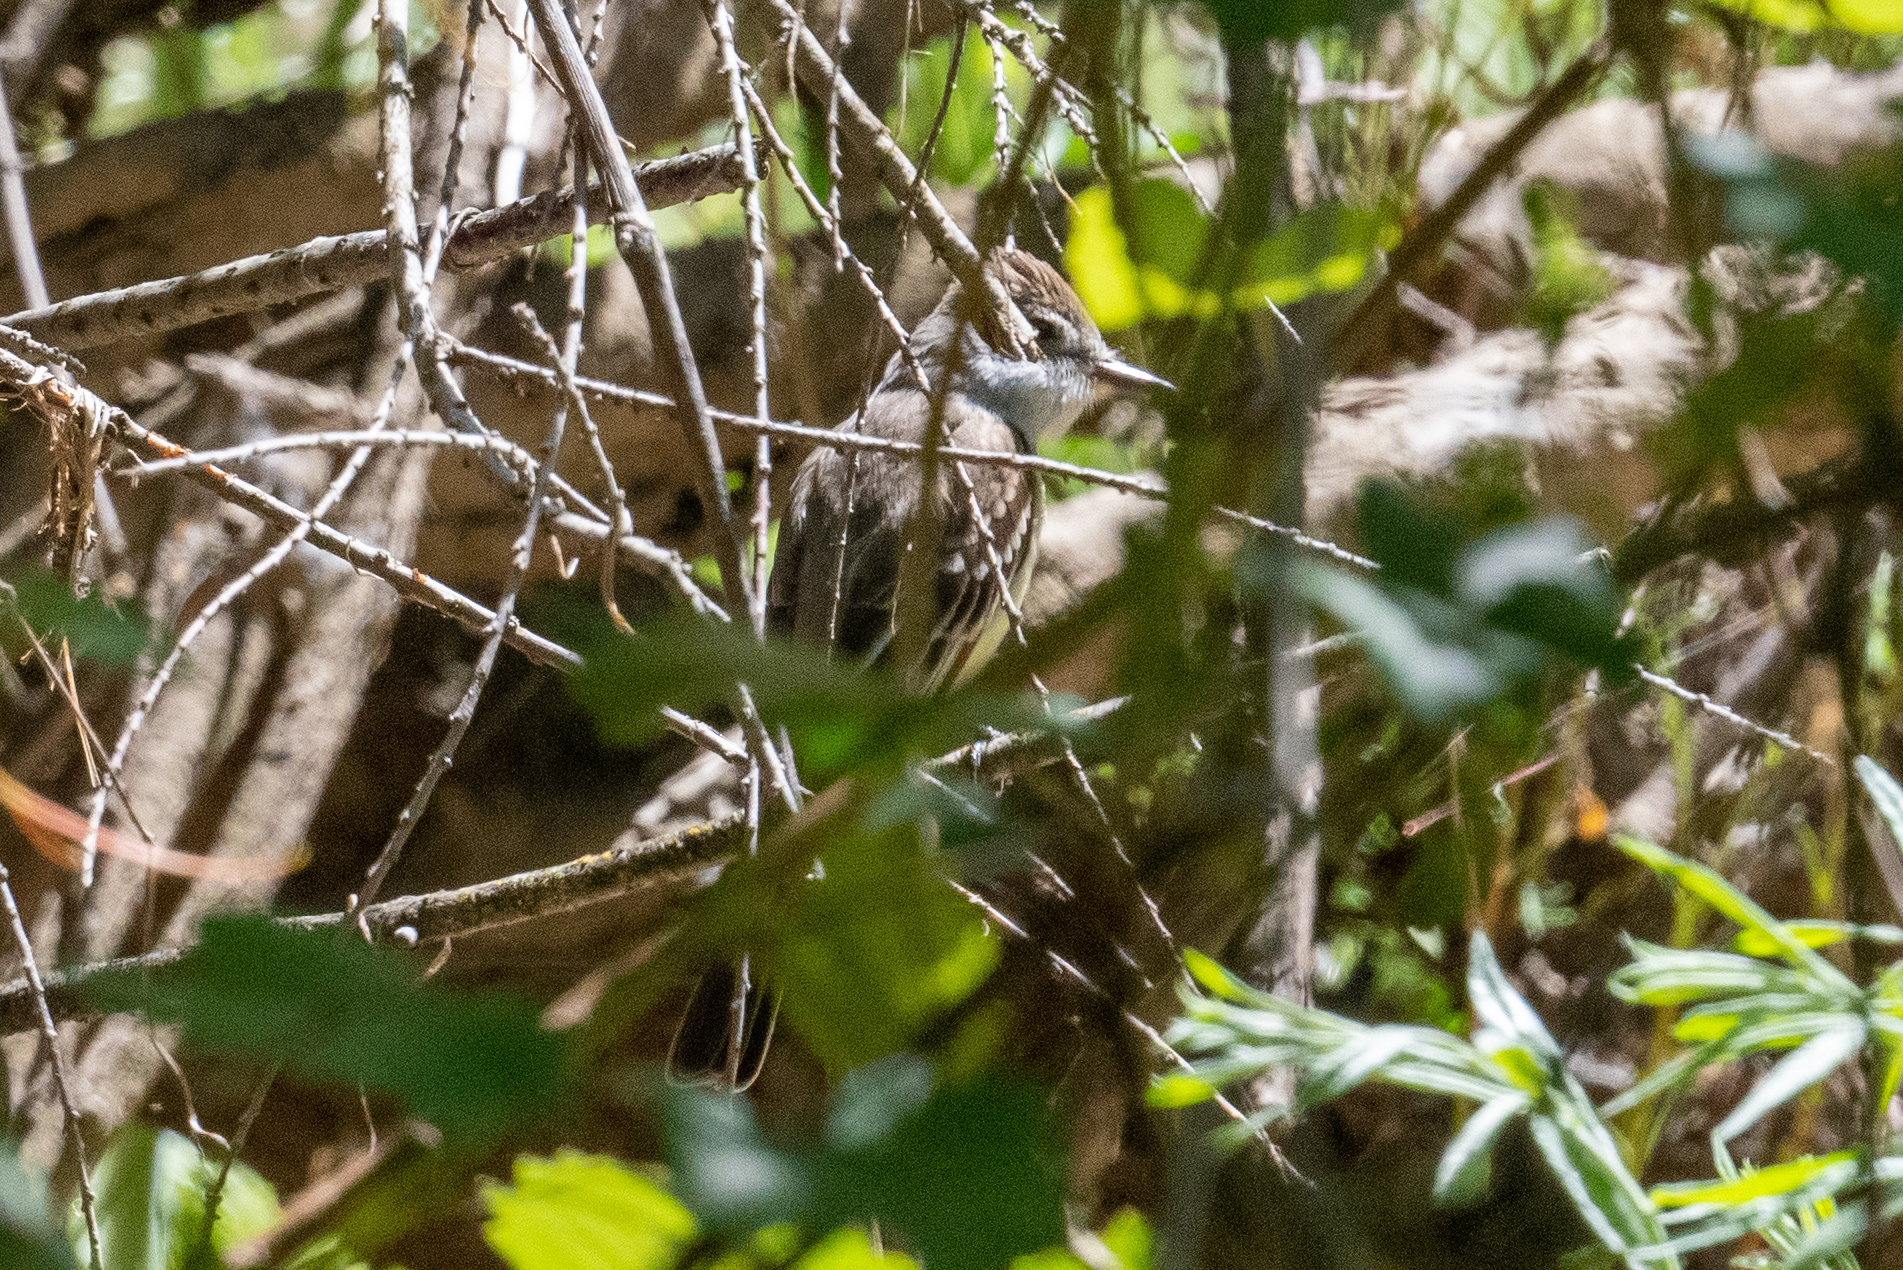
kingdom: Animalia
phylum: Chordata
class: Aves
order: Passeriformes
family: Tyrannidae
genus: Myiarchus
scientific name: Myiarchus cinerascens
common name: Ash-throated flycatcher
